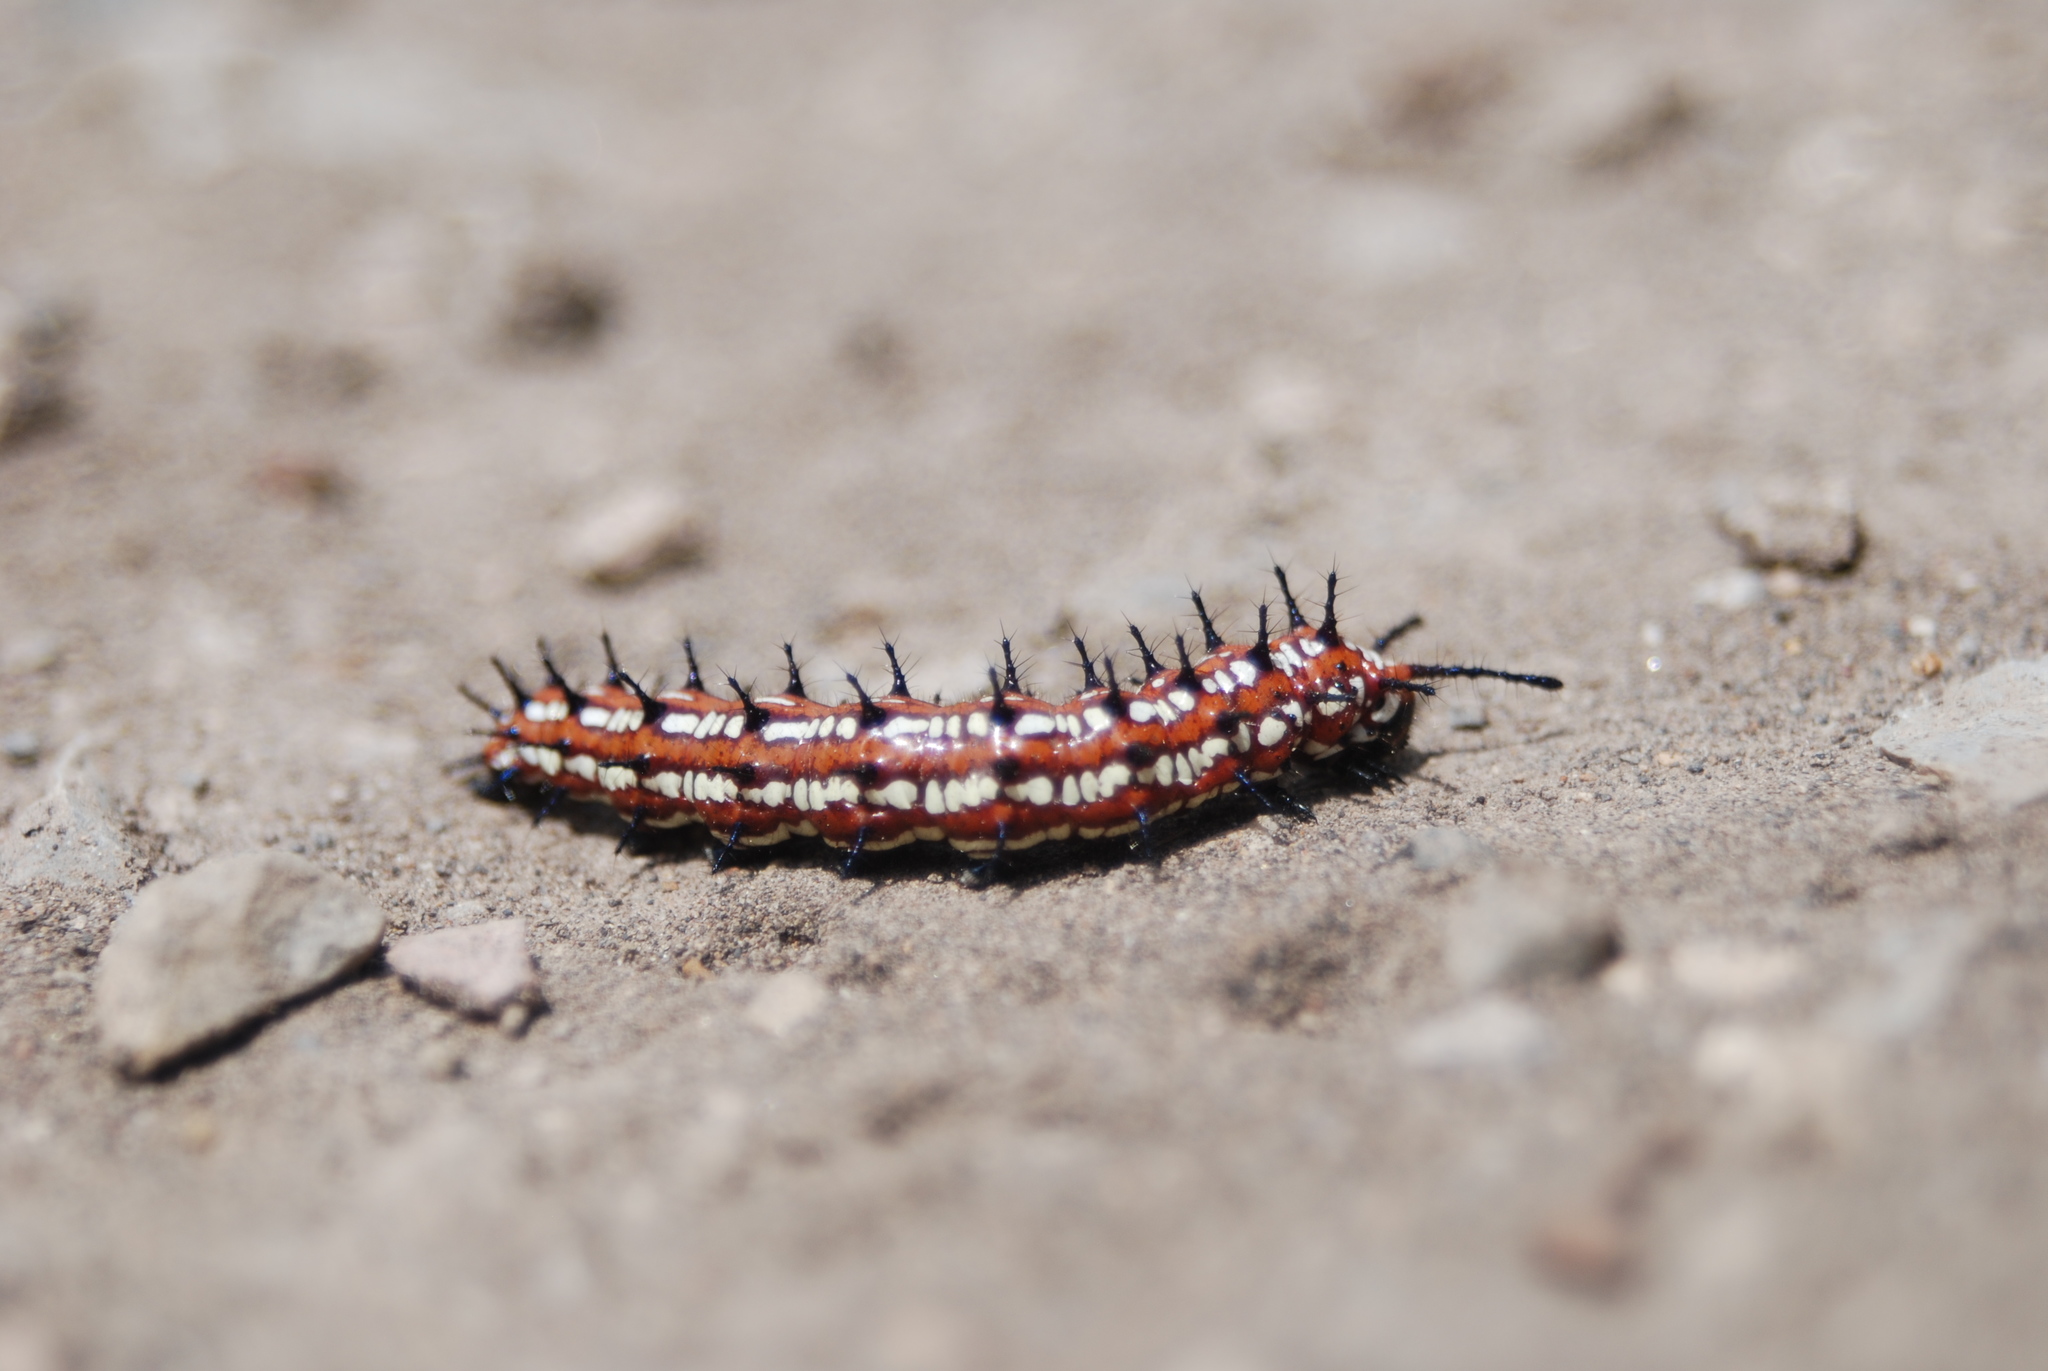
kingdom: Animalia
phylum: Arthropoda
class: Insecta
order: Lepidoptera
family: Nymphalidae
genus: Euptoieta
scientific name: Euptoieta claudia
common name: Variegated fritillary
